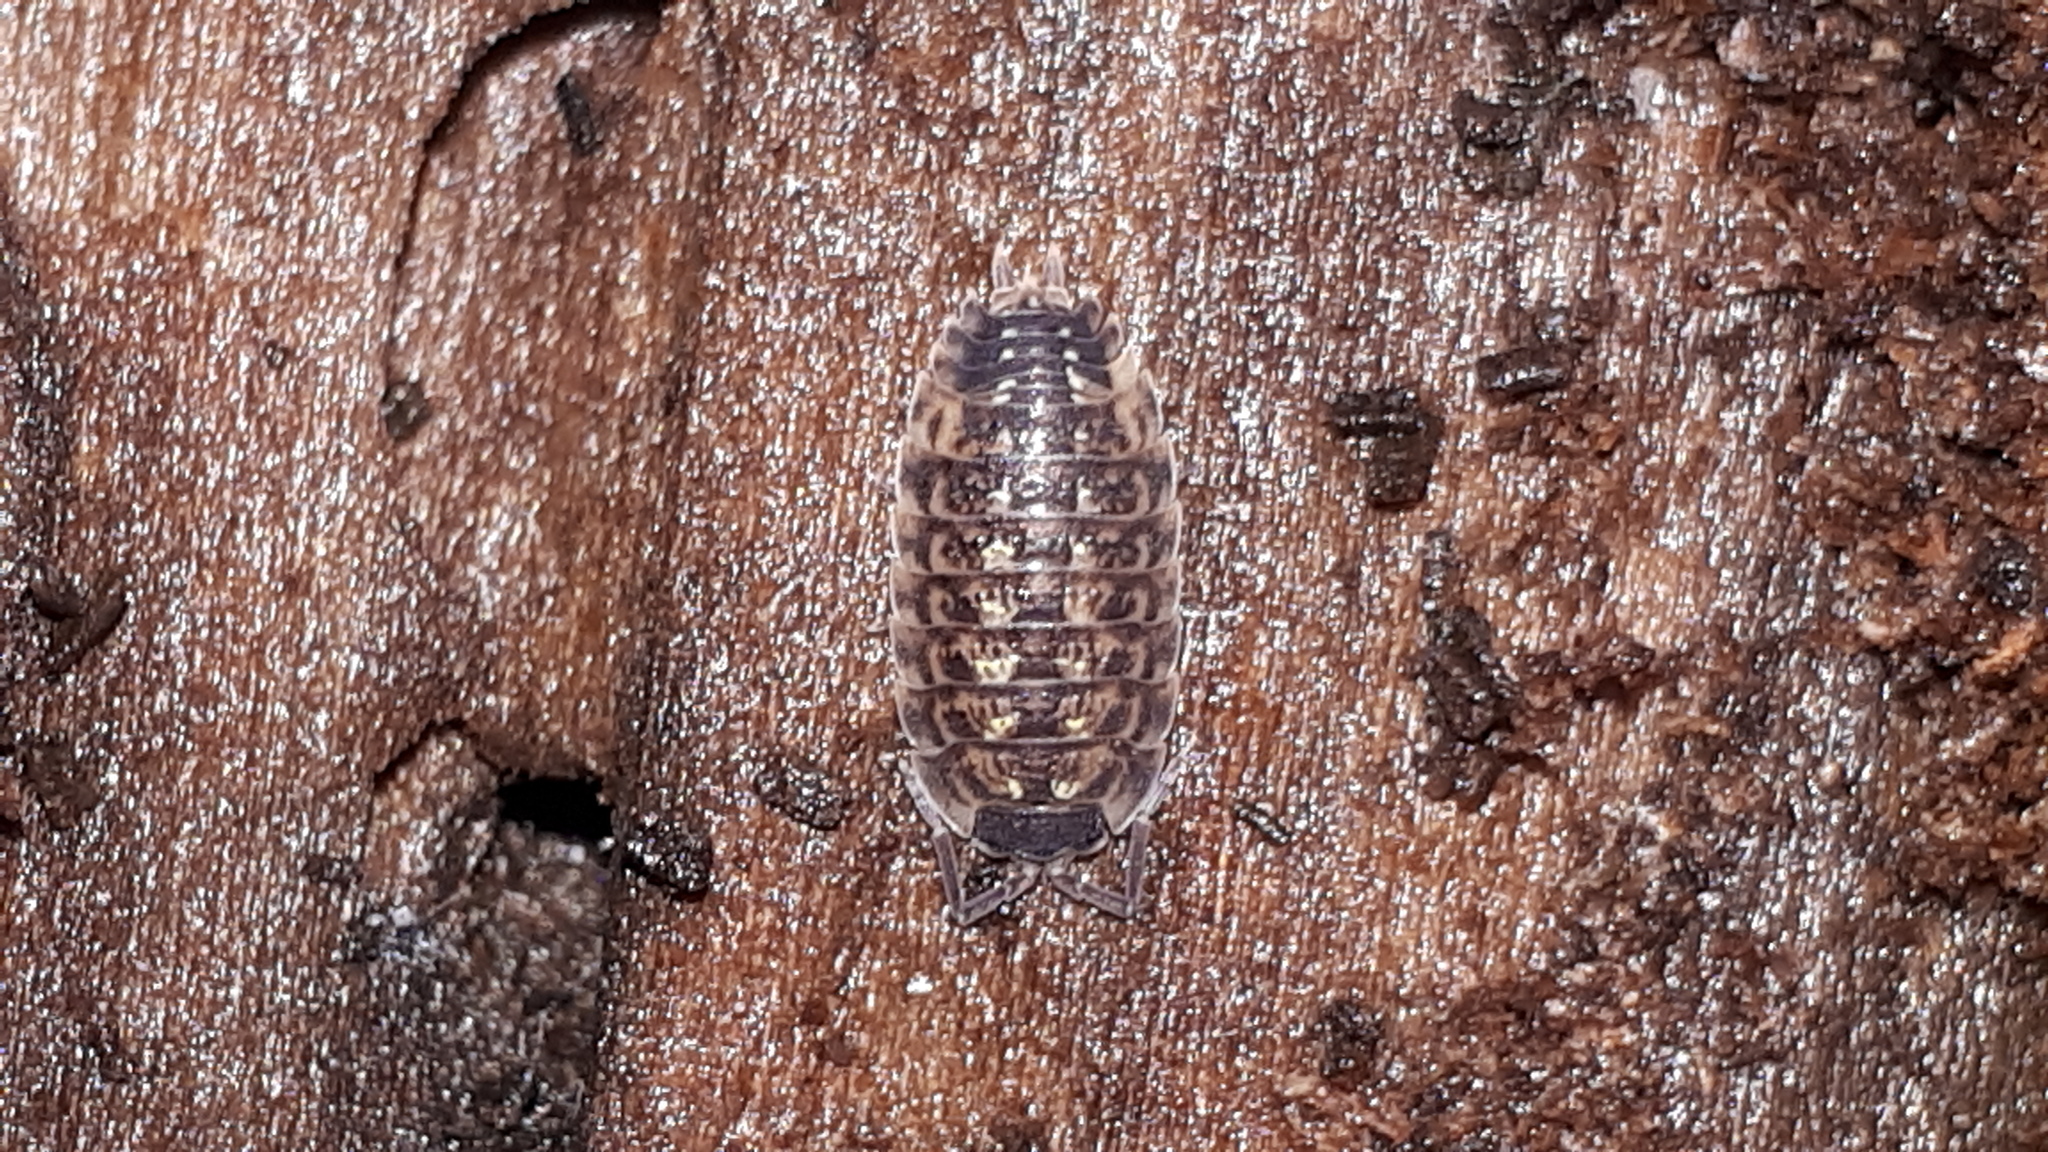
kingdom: Animalia
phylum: Arthropoda
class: Malacostraca
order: Isopoda
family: Porcellionidae
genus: Porcellio
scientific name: Porcellio spinicornis
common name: Painted woodlouse
